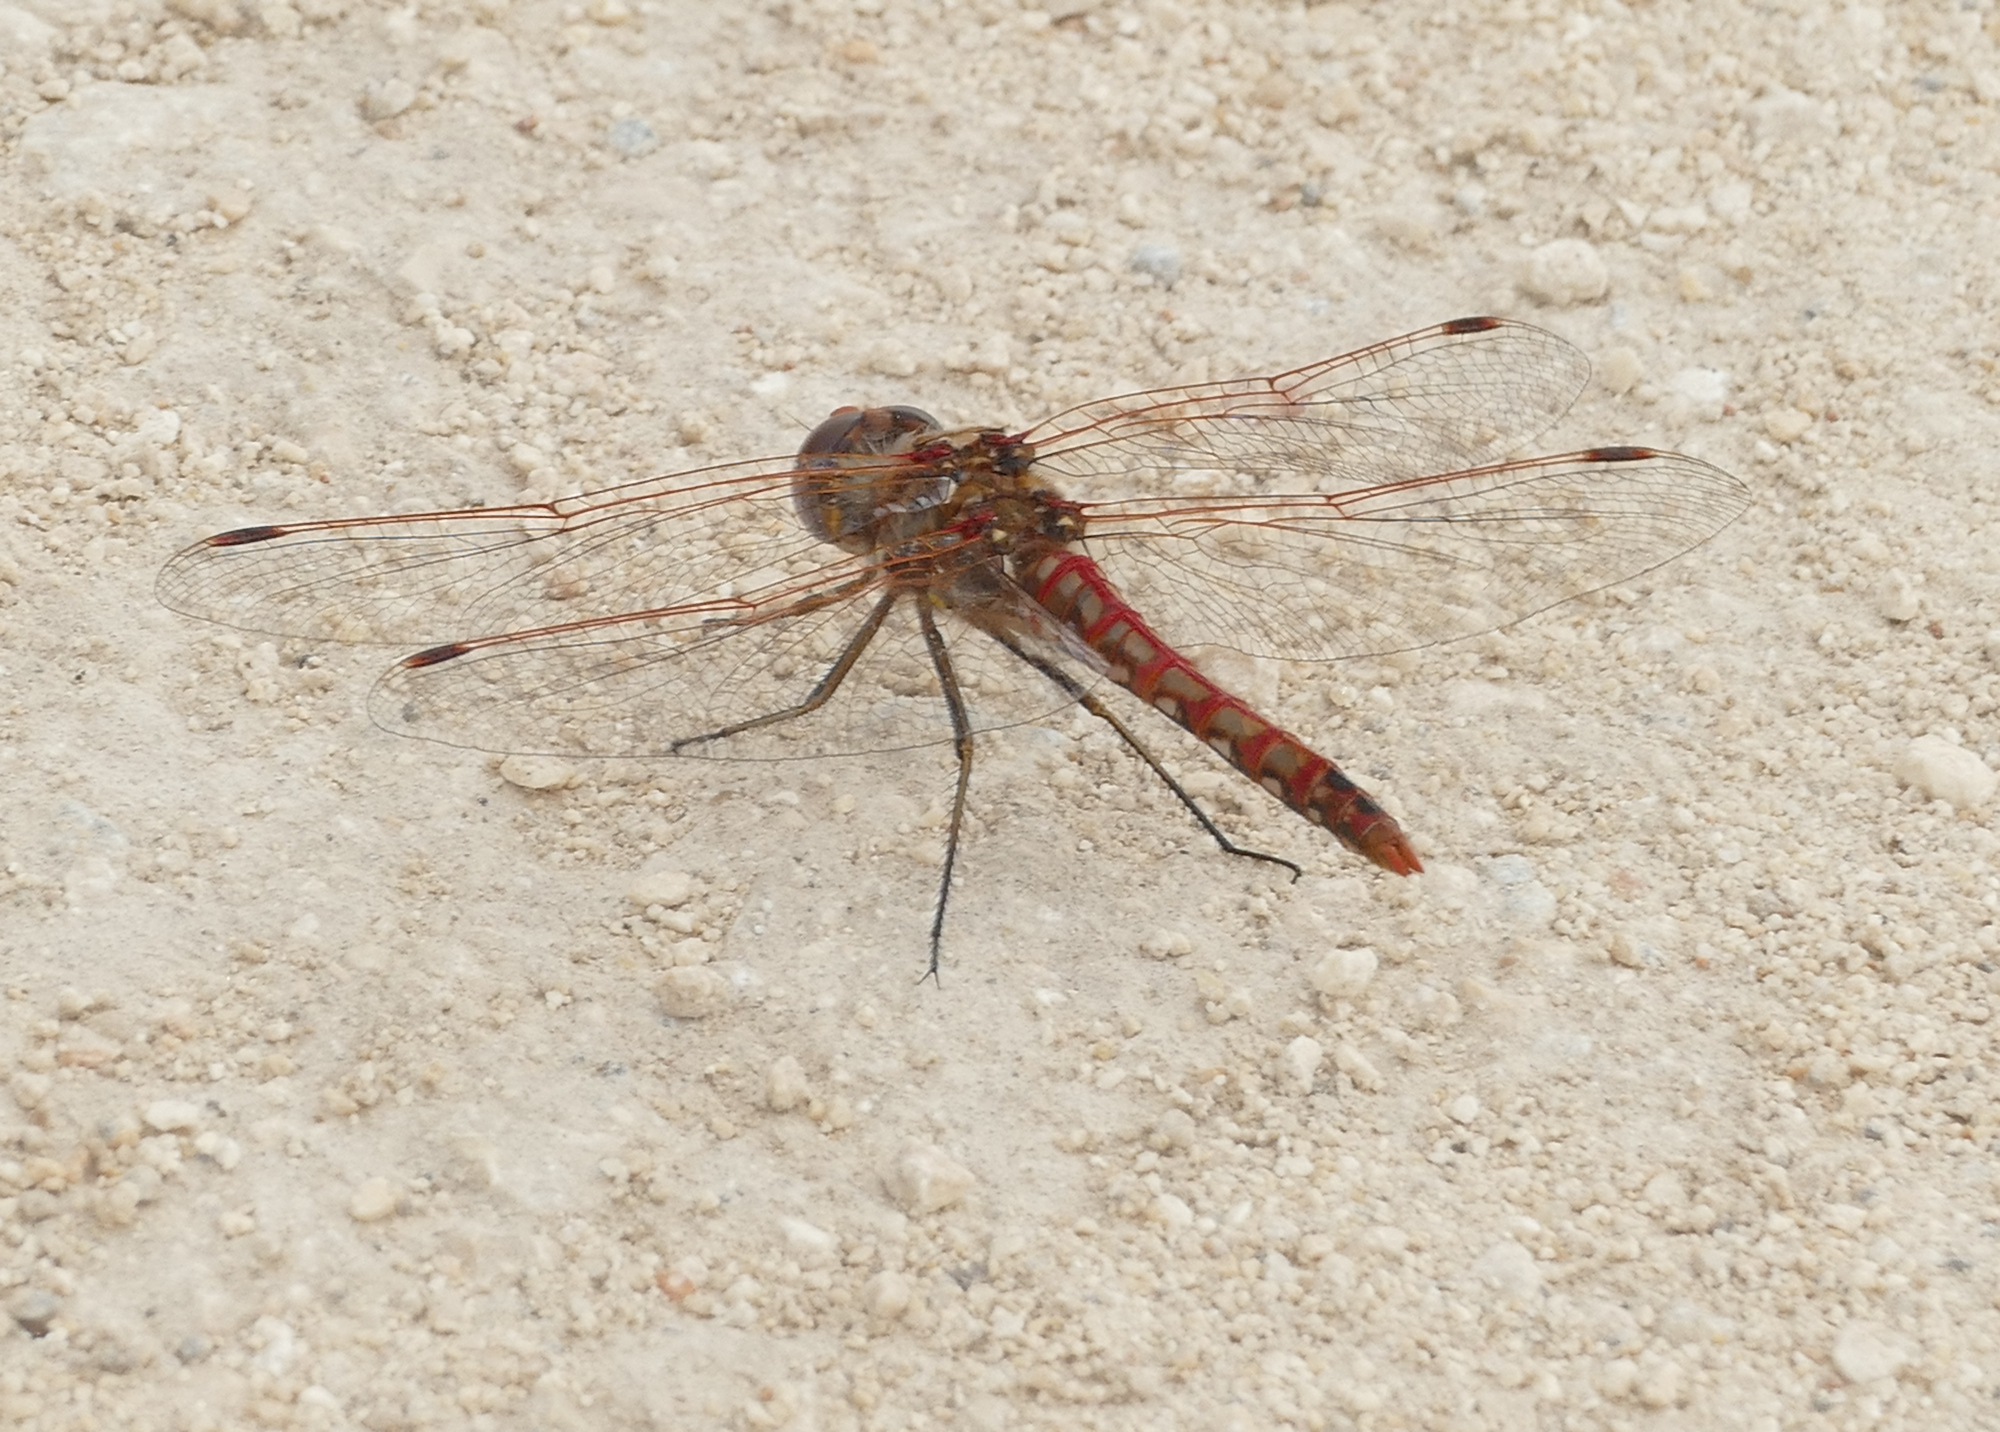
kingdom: Animalia
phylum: Arthropoda
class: Insecta
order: Odonata
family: Libellulidae
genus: Sympetrum
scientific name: Sympetrum corruptum
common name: Variegated meadowhawk
